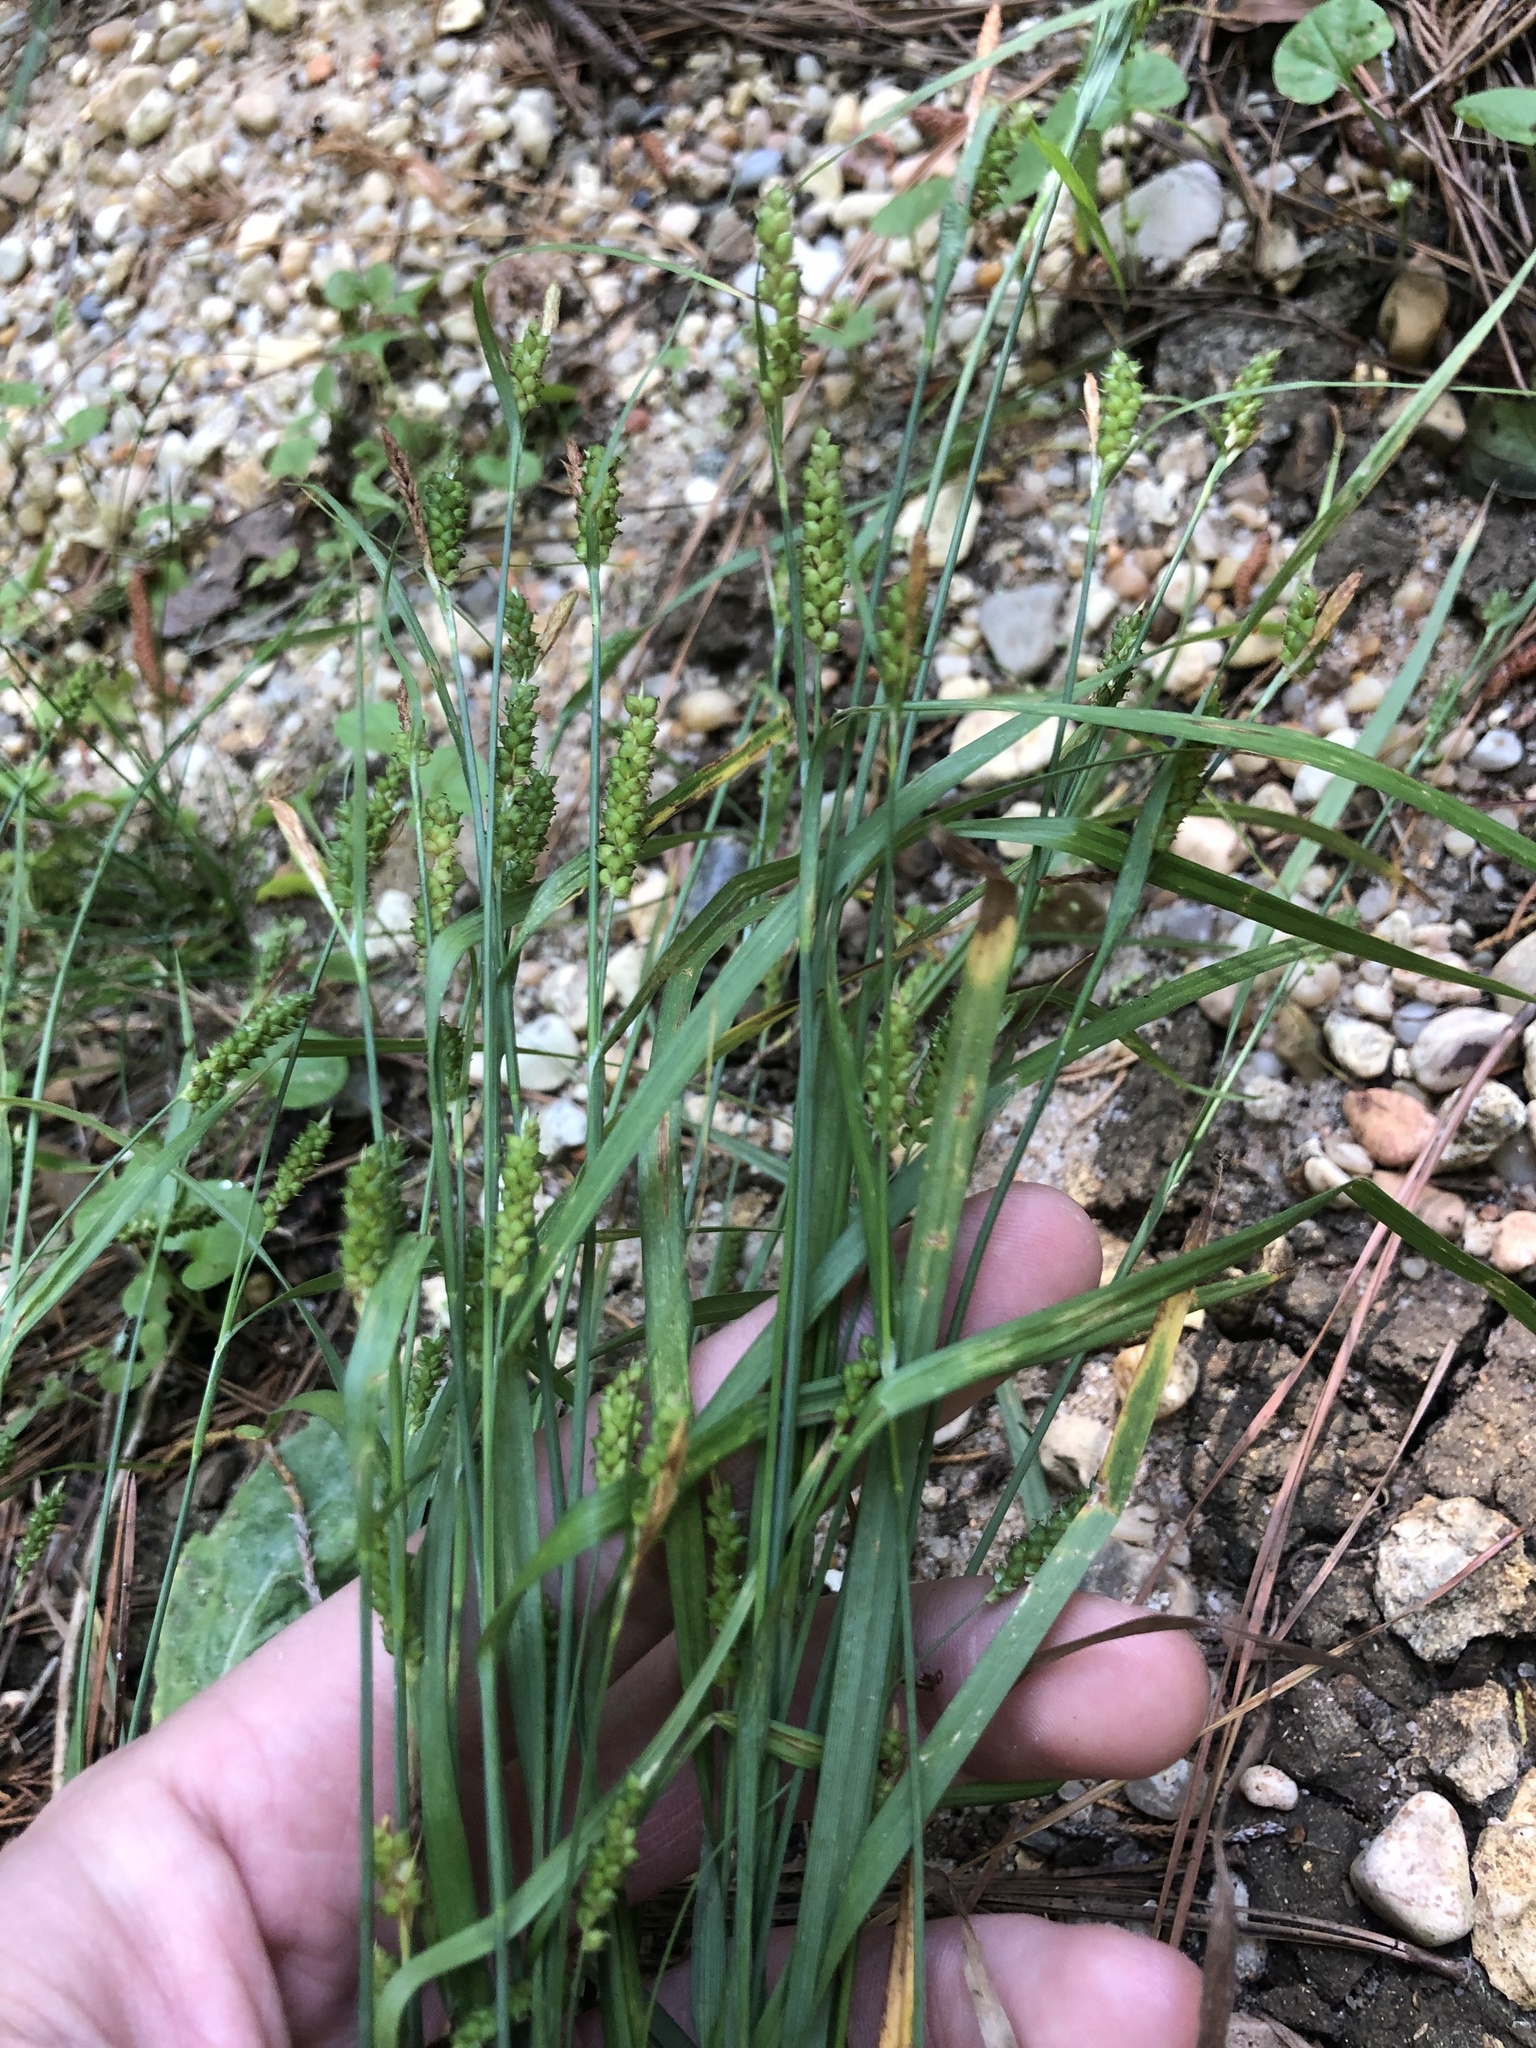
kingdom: Plantae
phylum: Tracheophyta
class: Liliopsida
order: Poales
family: Cyperaceae
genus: Carex
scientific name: Carex granularis
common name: Granular sedge
